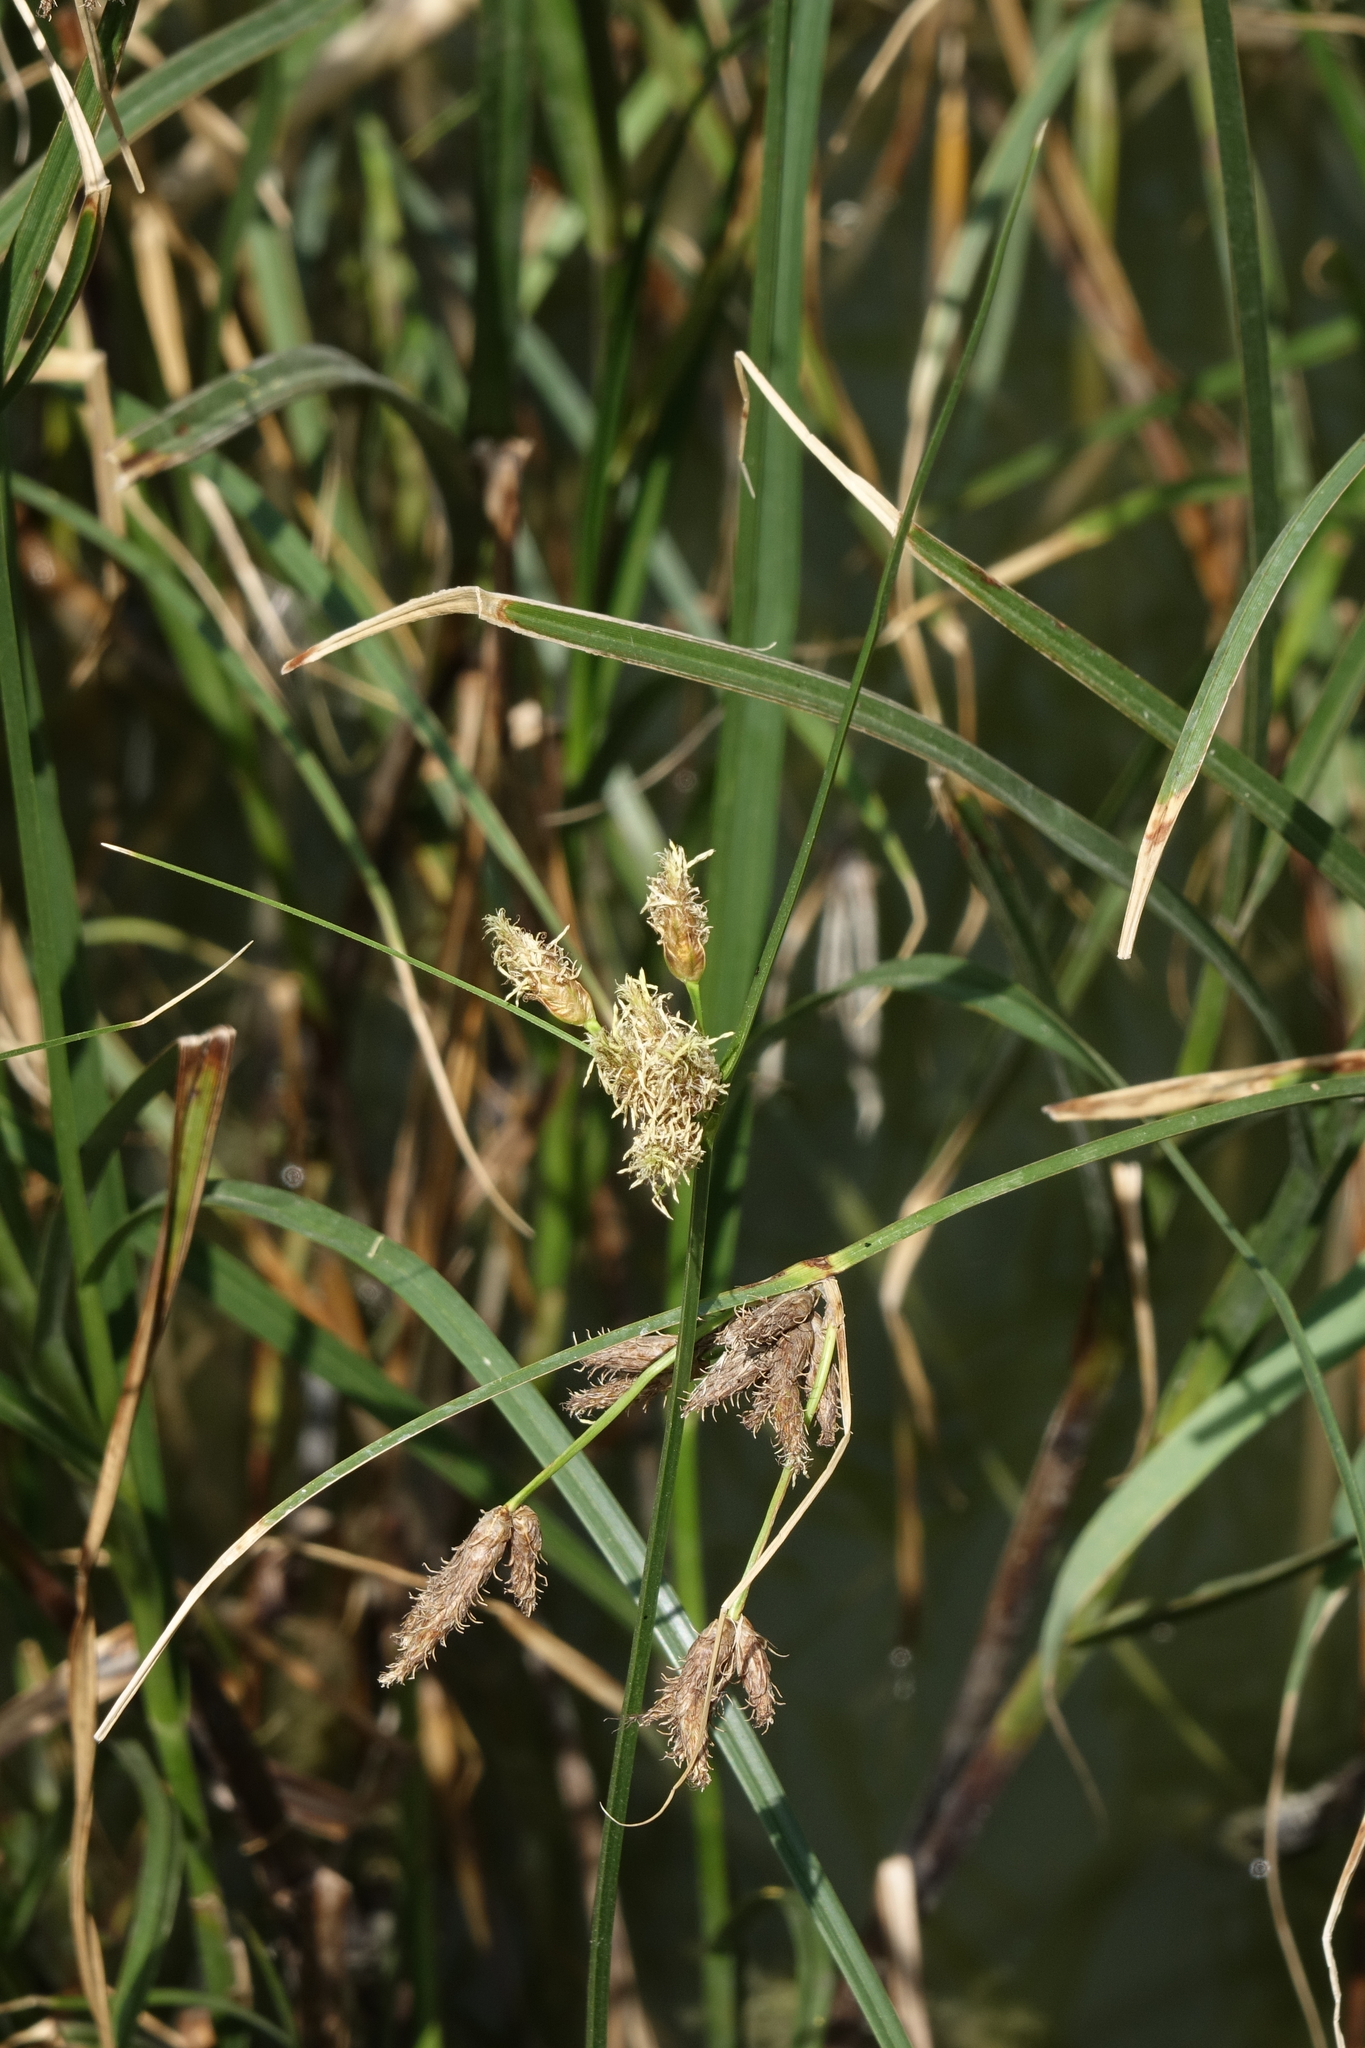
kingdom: Plantae
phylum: Tracheophyta
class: Liliopsida
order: Poales
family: Cyperaceae
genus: Bolboschoenus
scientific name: Bolboschoenus maritimus
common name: Sea club-rush
